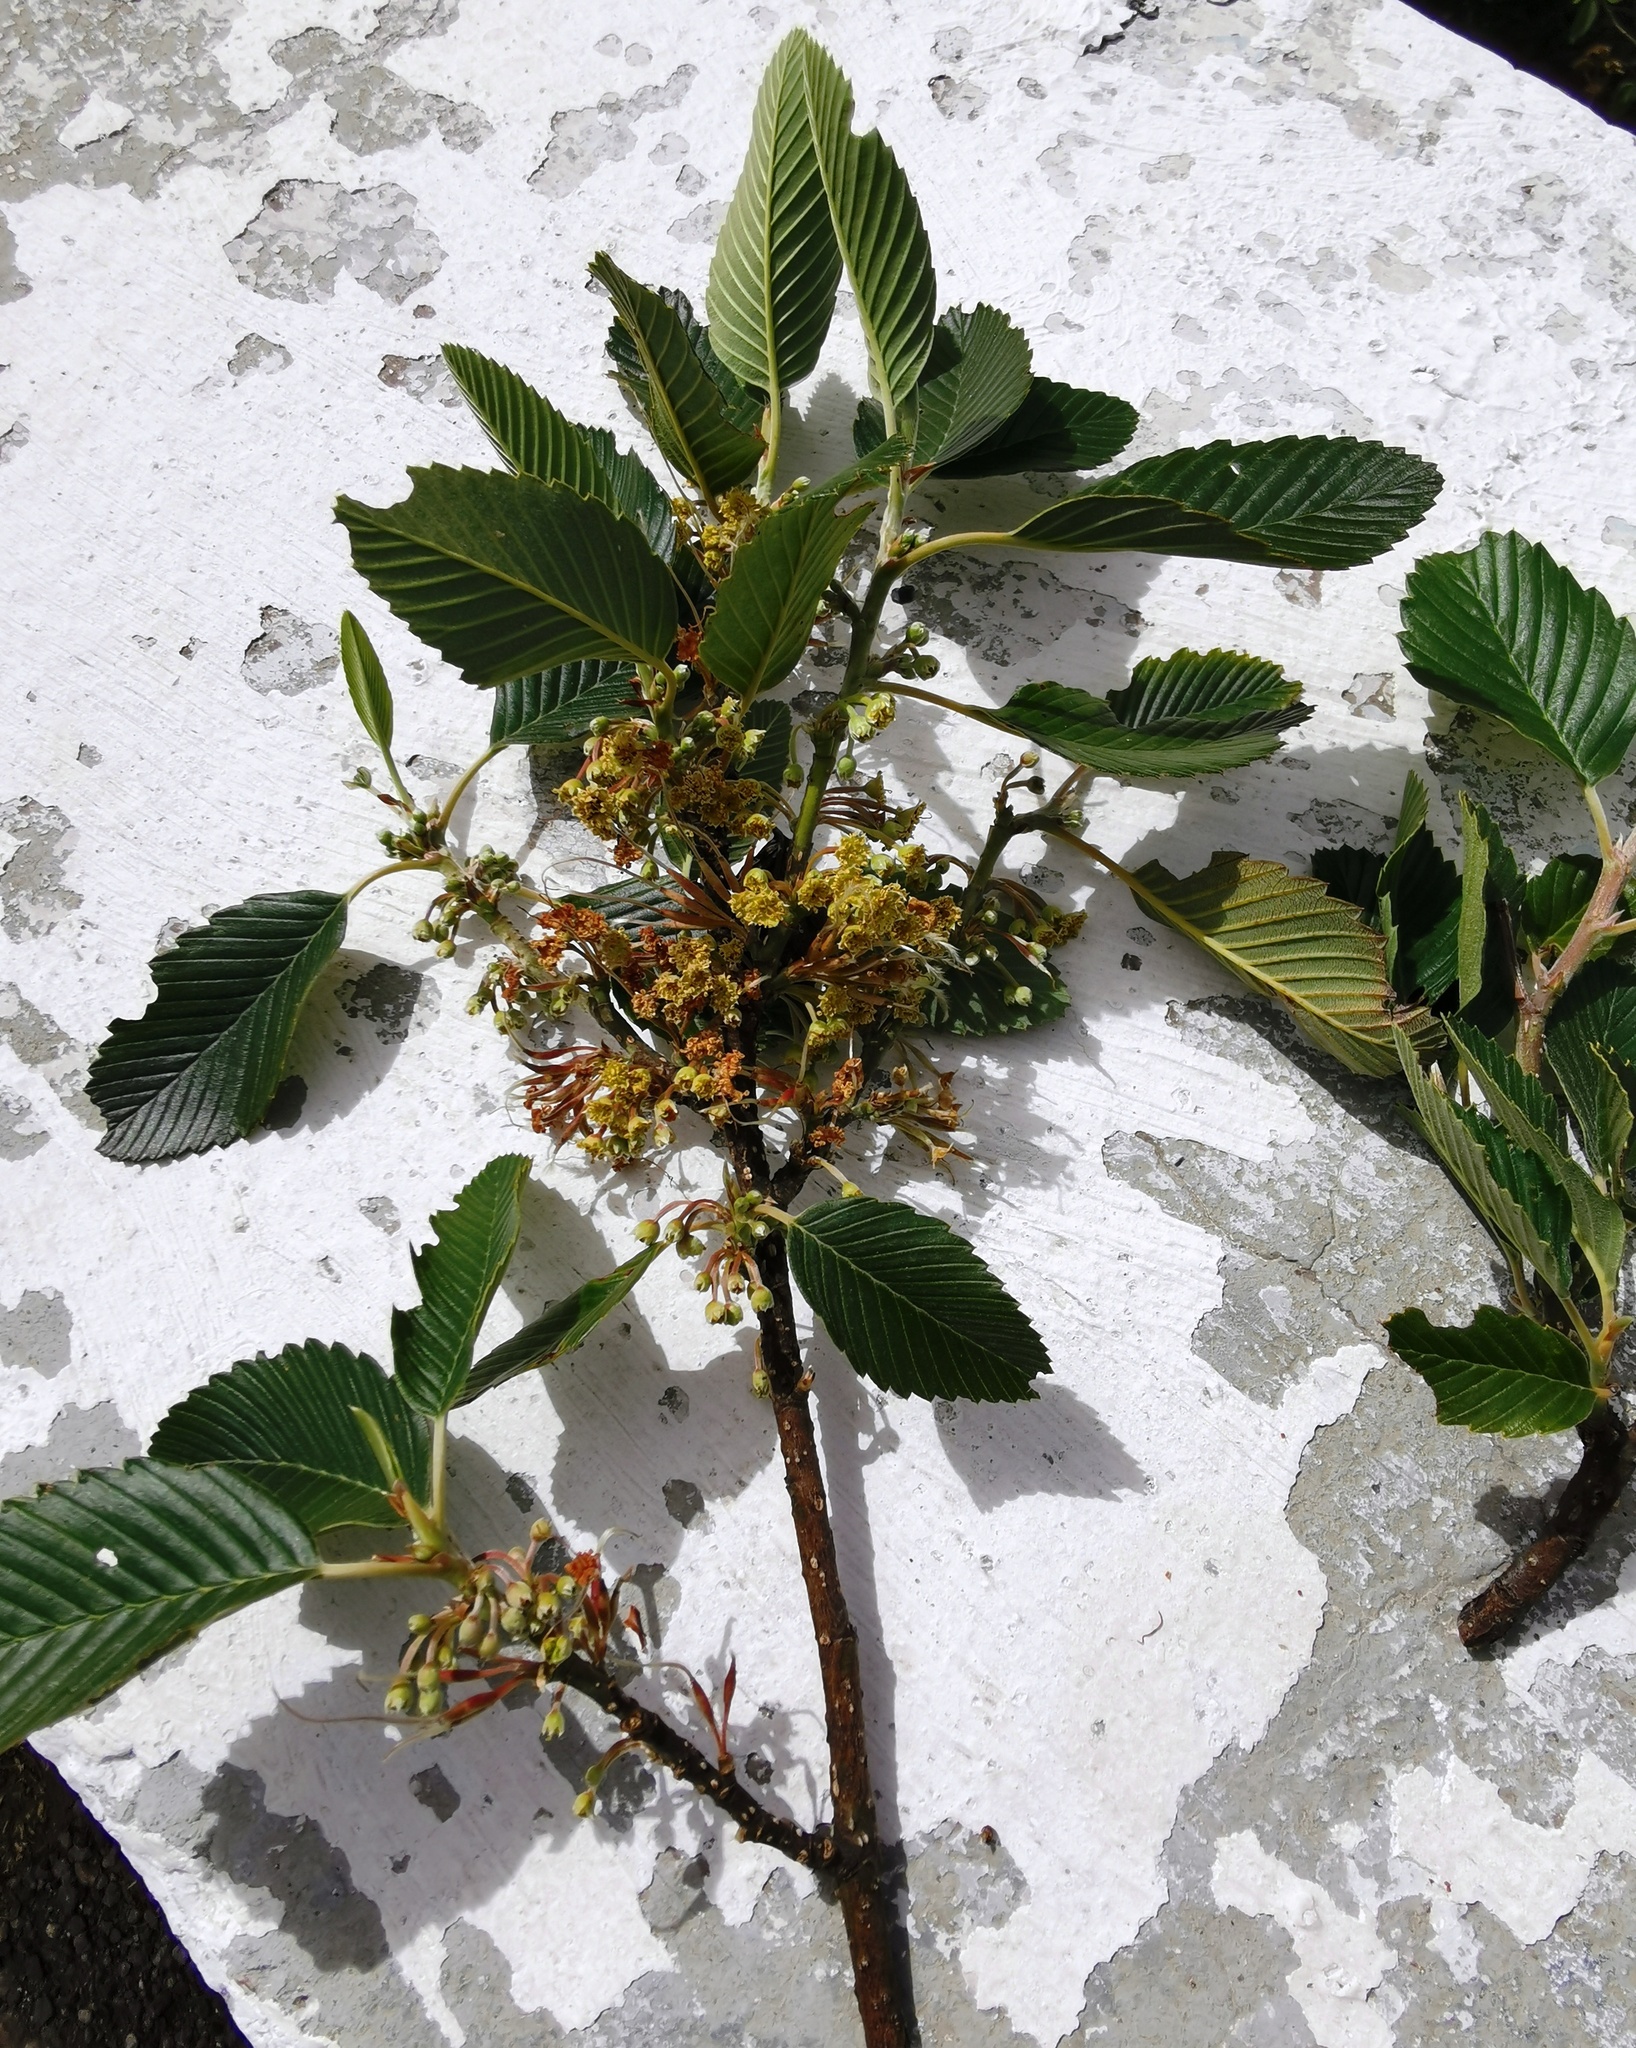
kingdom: Plantae
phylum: Tracheophyta
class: Magnoliopsida
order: Rosales
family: Rosaceae
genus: Cercocarpus
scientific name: Cercocarpus macrophyllus
